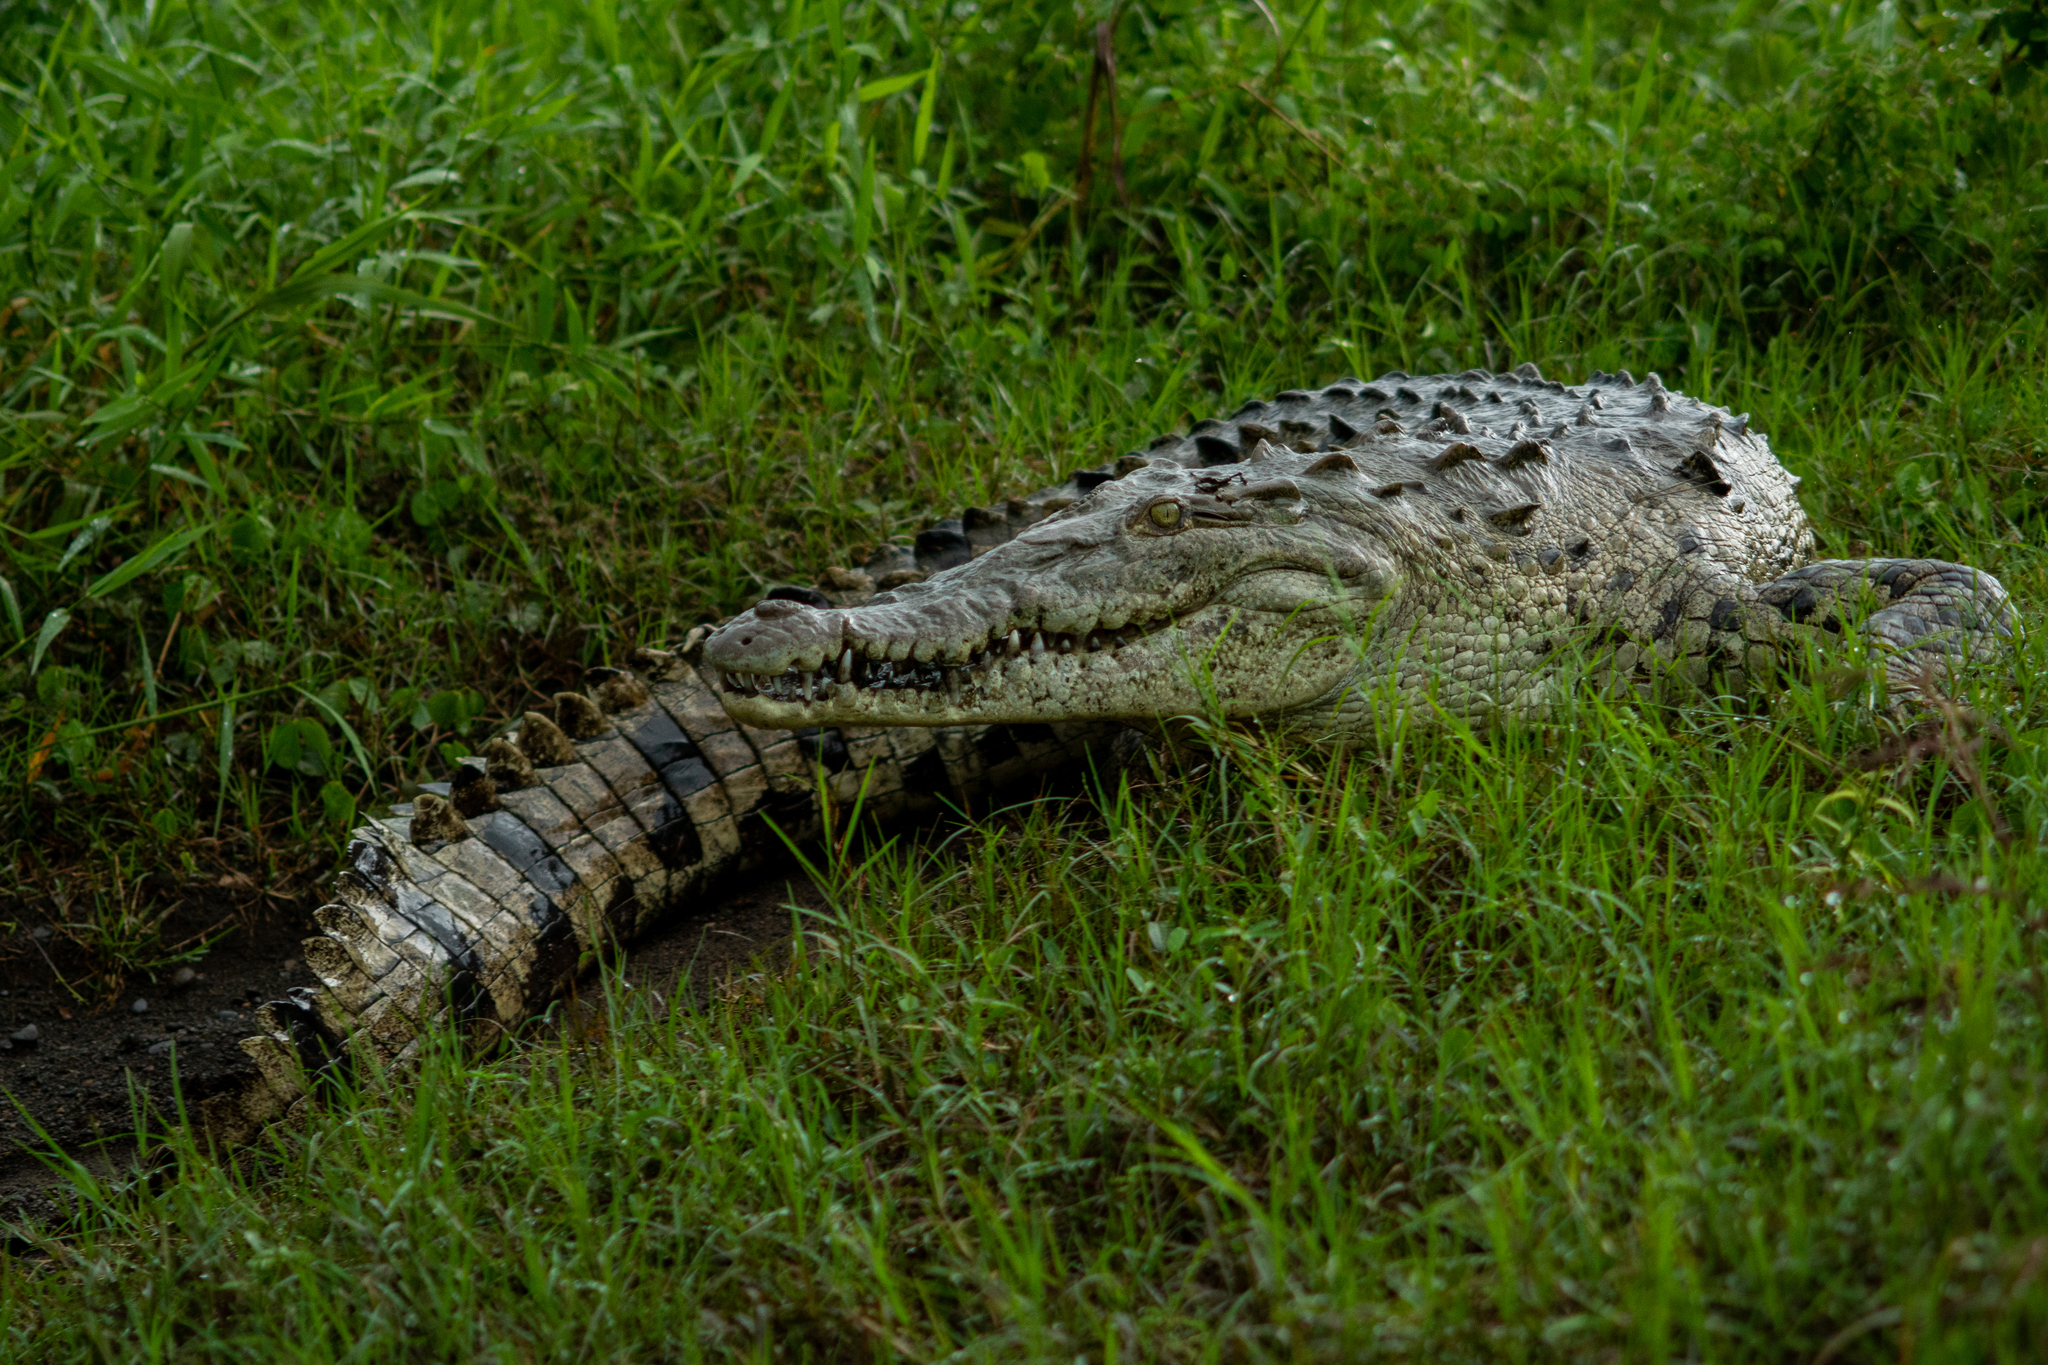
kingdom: Animalia
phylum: Chordata
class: Crocodylia
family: Crocodylidae
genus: Crocodylus
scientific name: Crocodylus acutus
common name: American crocodile
